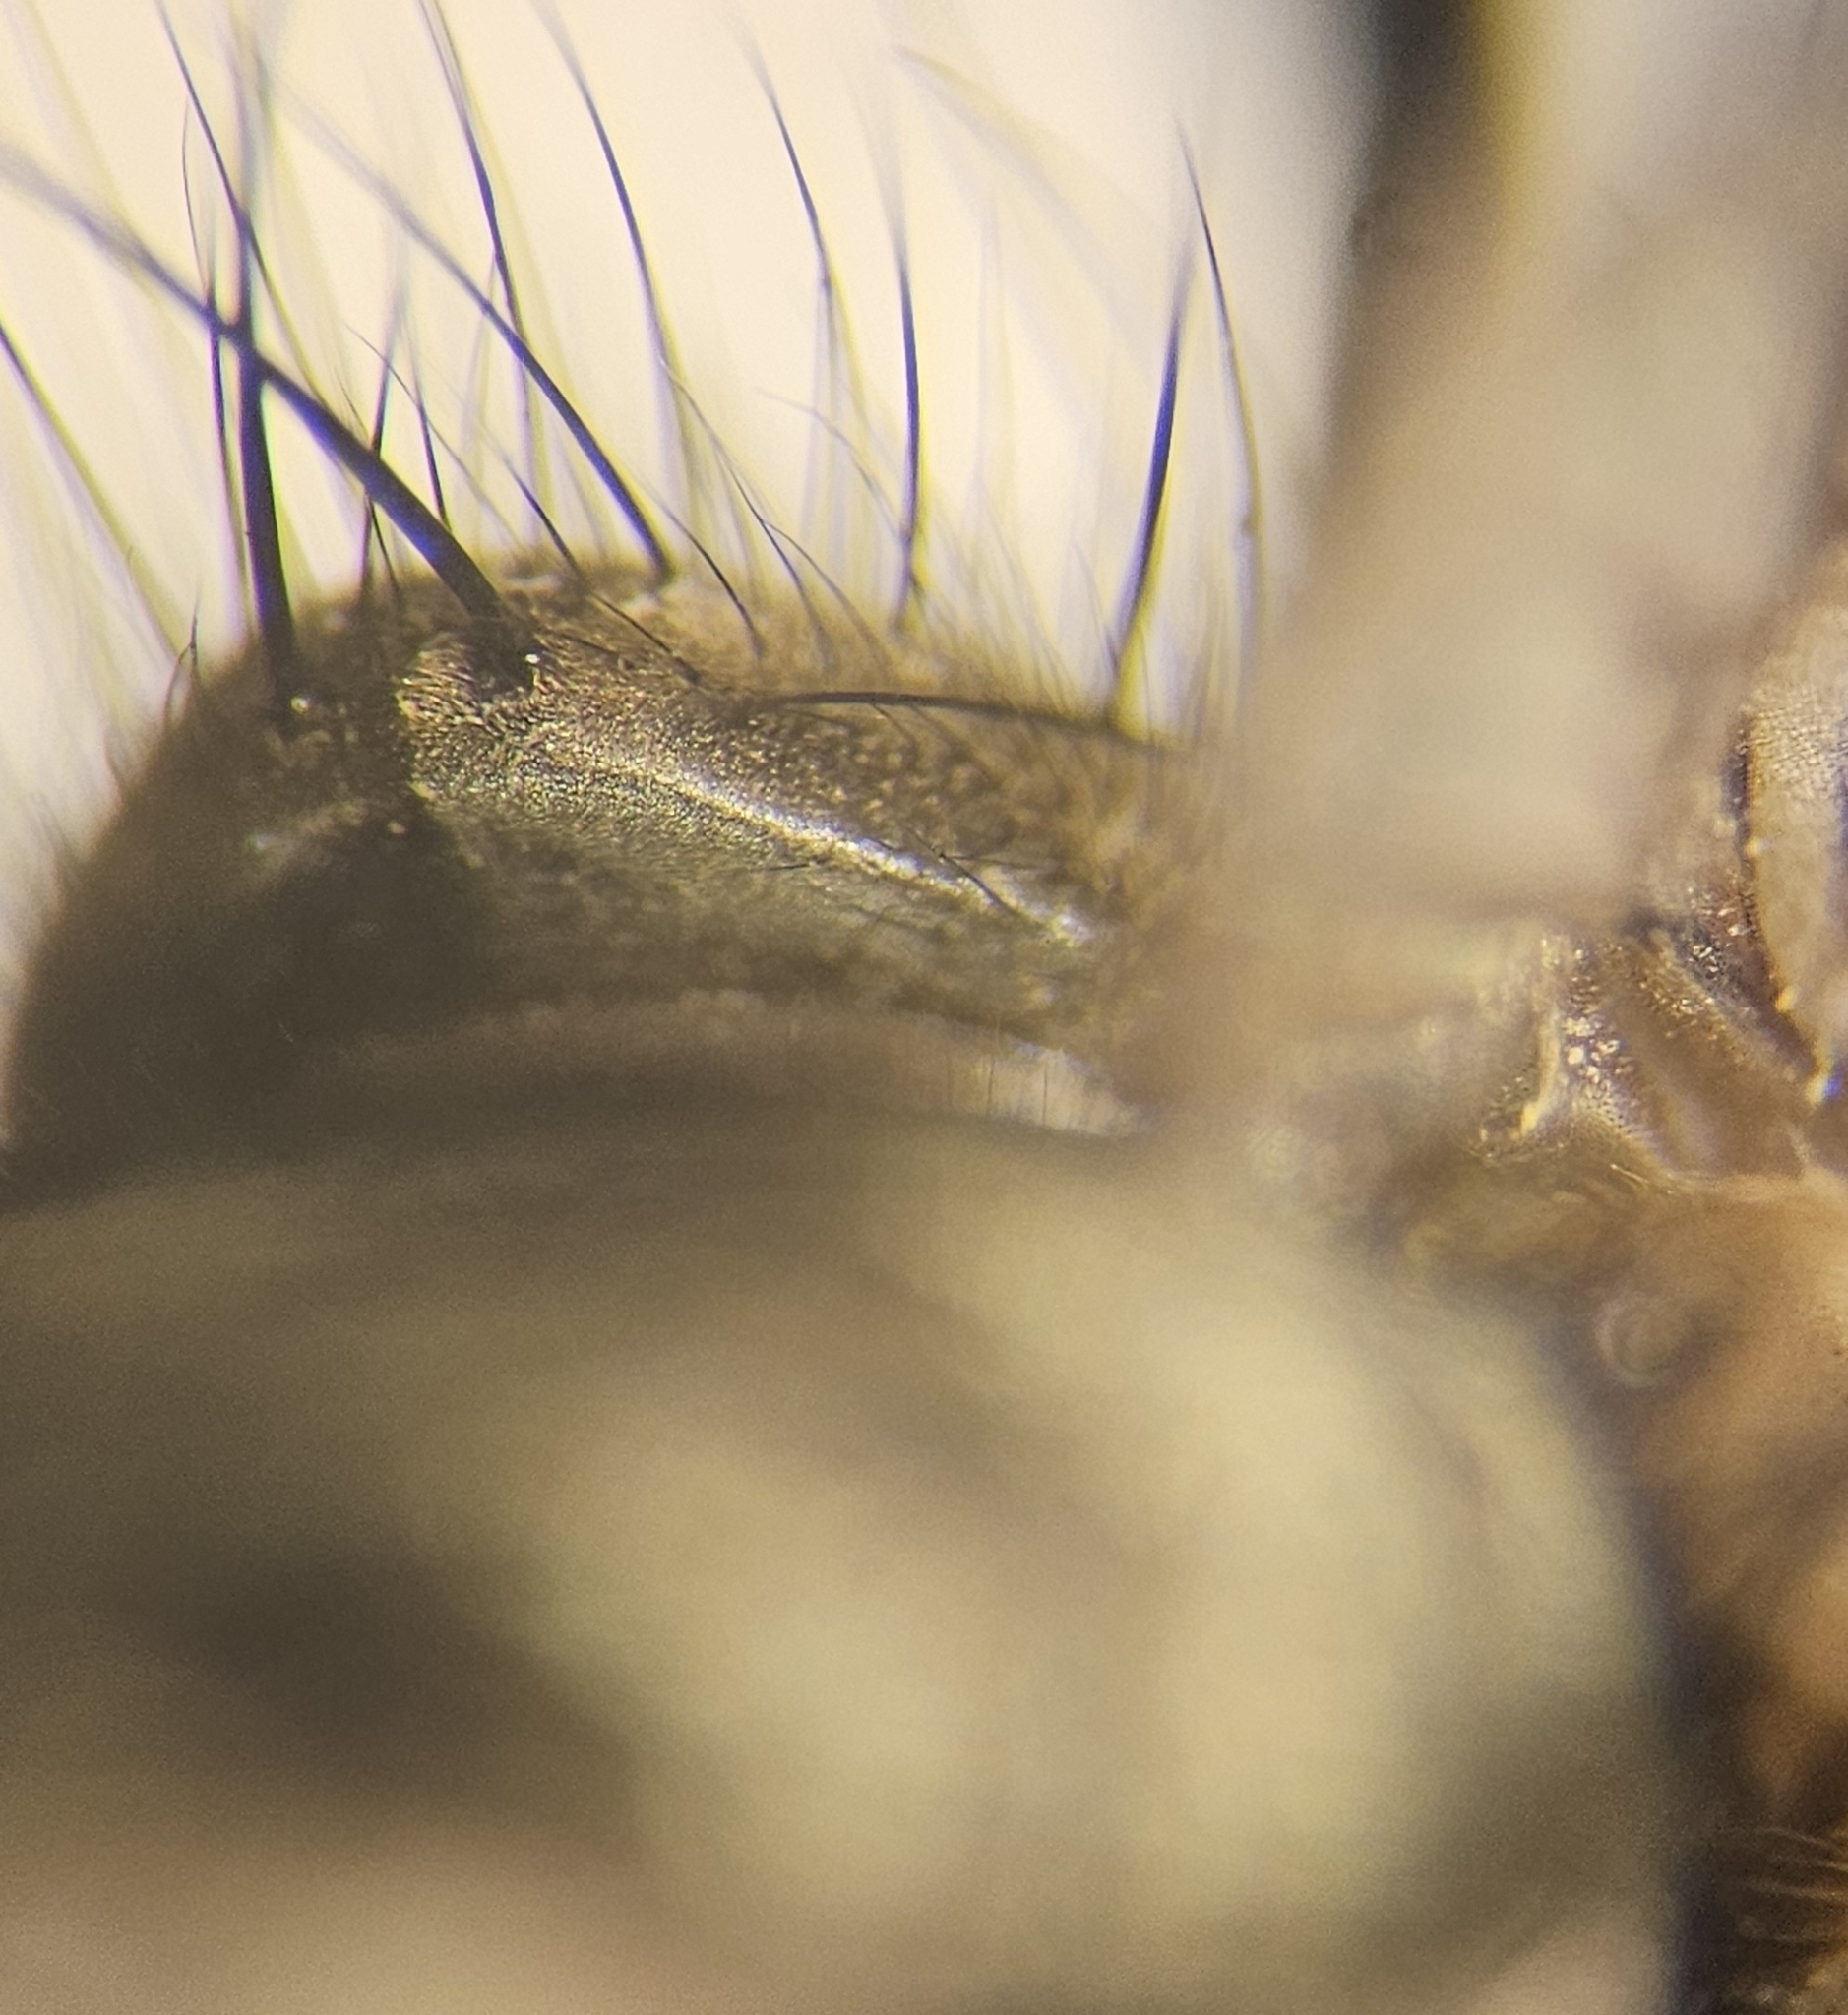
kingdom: Animalia
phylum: Arthropoda
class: Insecta
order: Diptera
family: Muscidae
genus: Helina
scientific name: Helina annosa
